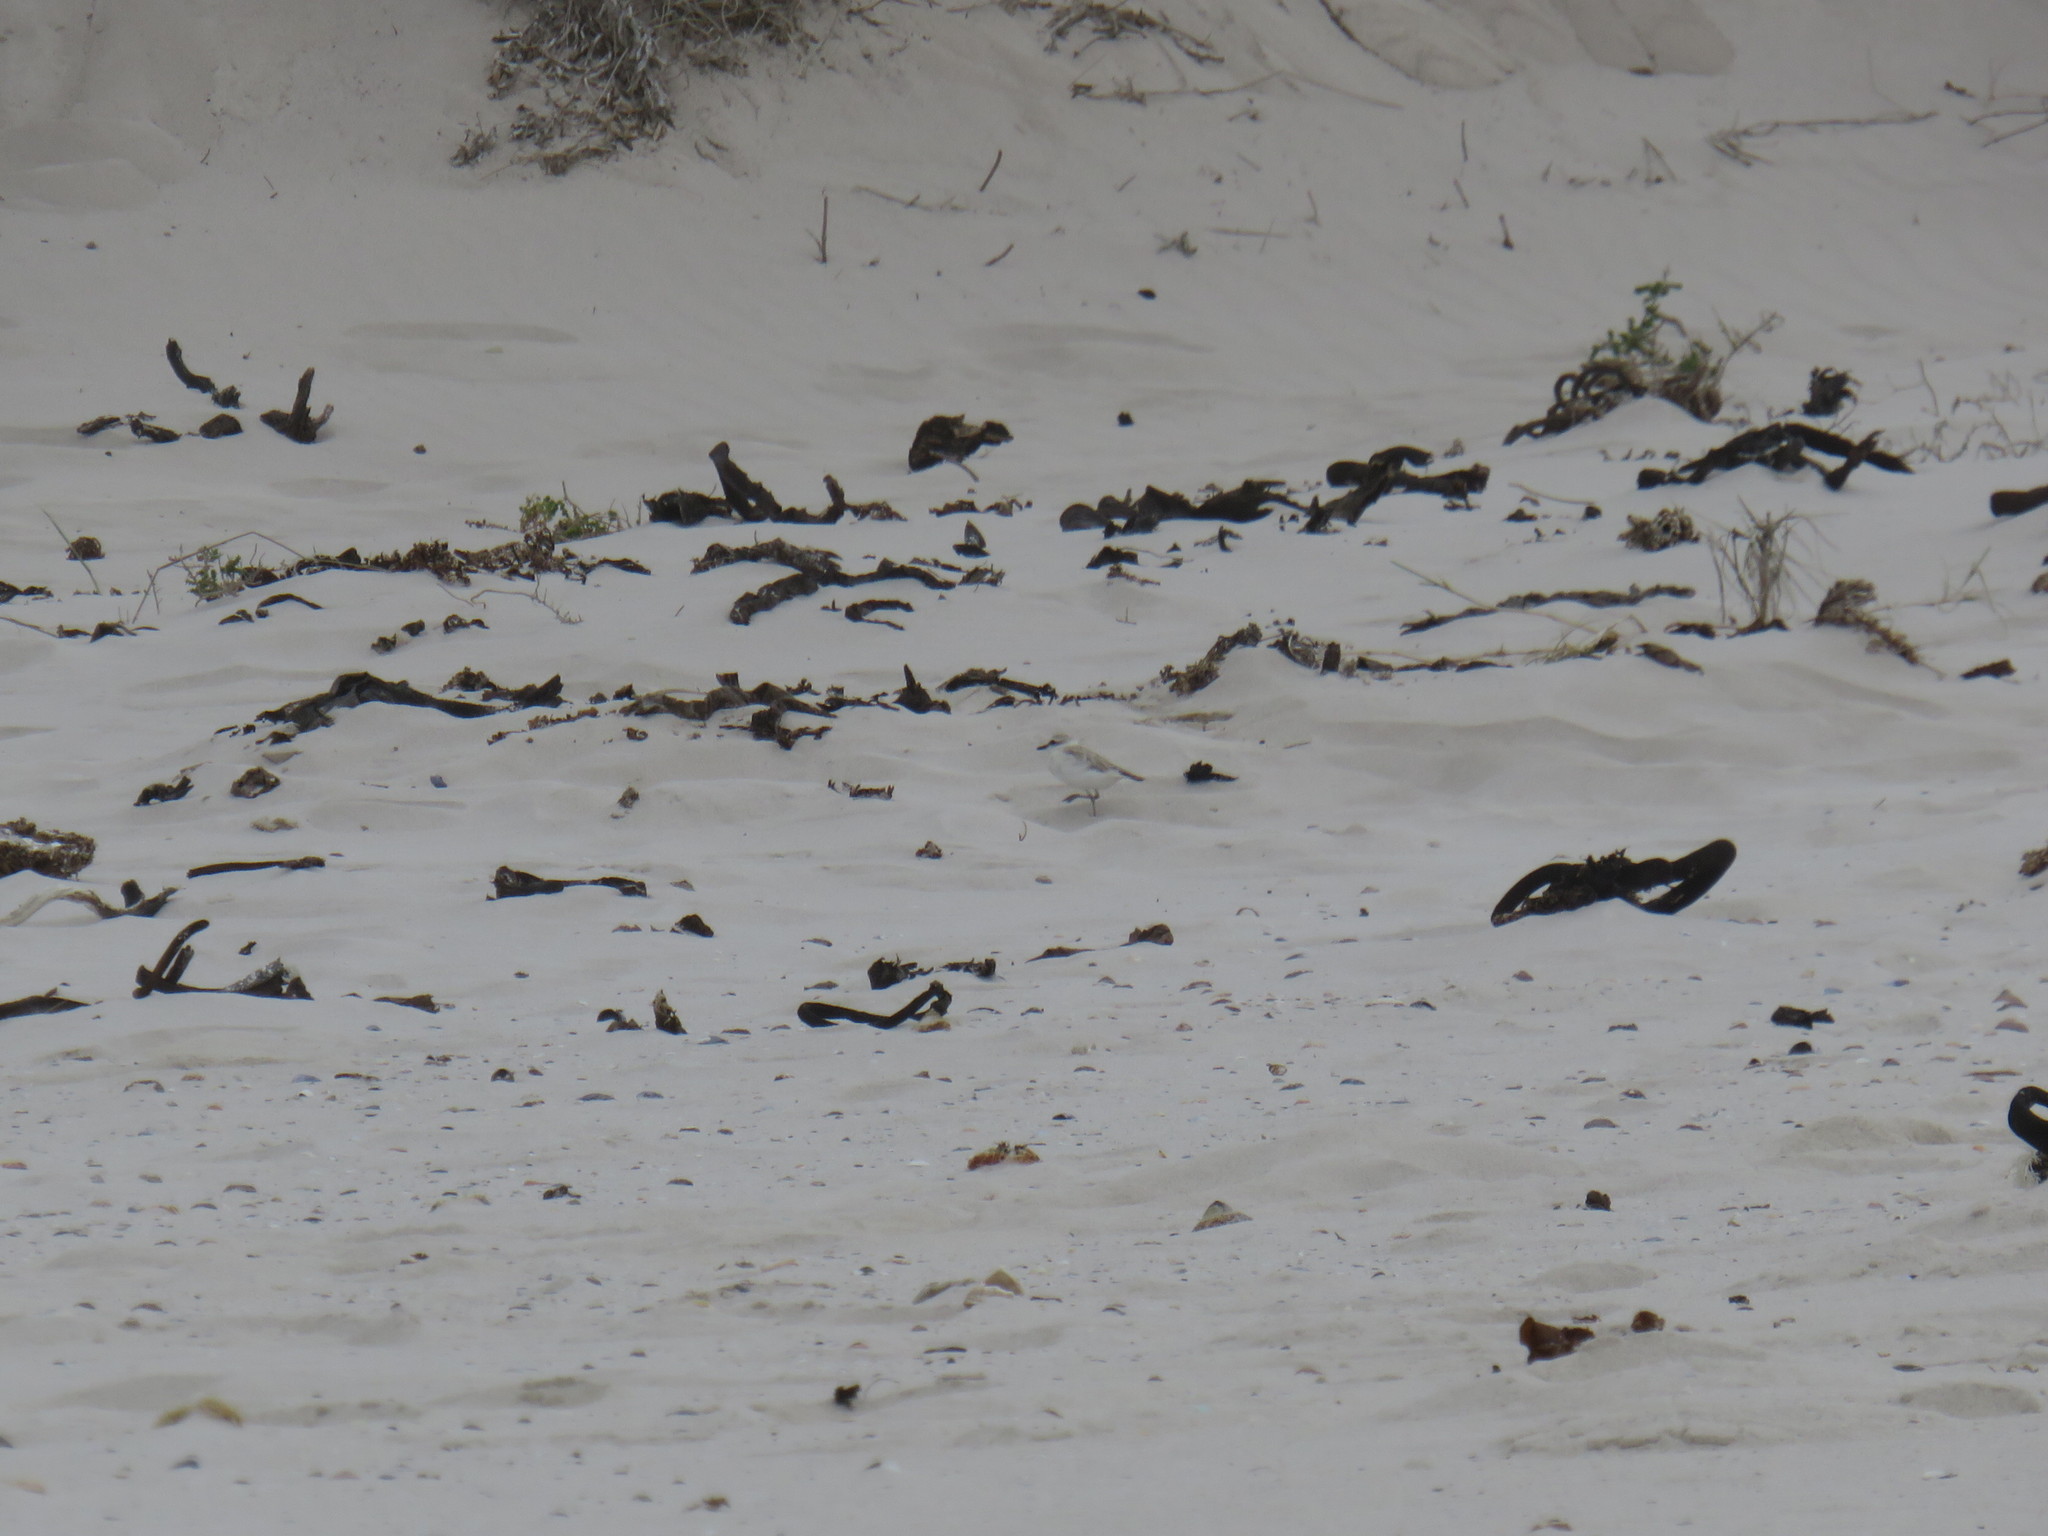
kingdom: Animalia
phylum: Chordata
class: Aves
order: Charadriiformes
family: Charadriidae
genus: Anarhynchus
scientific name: Anarhynchus
